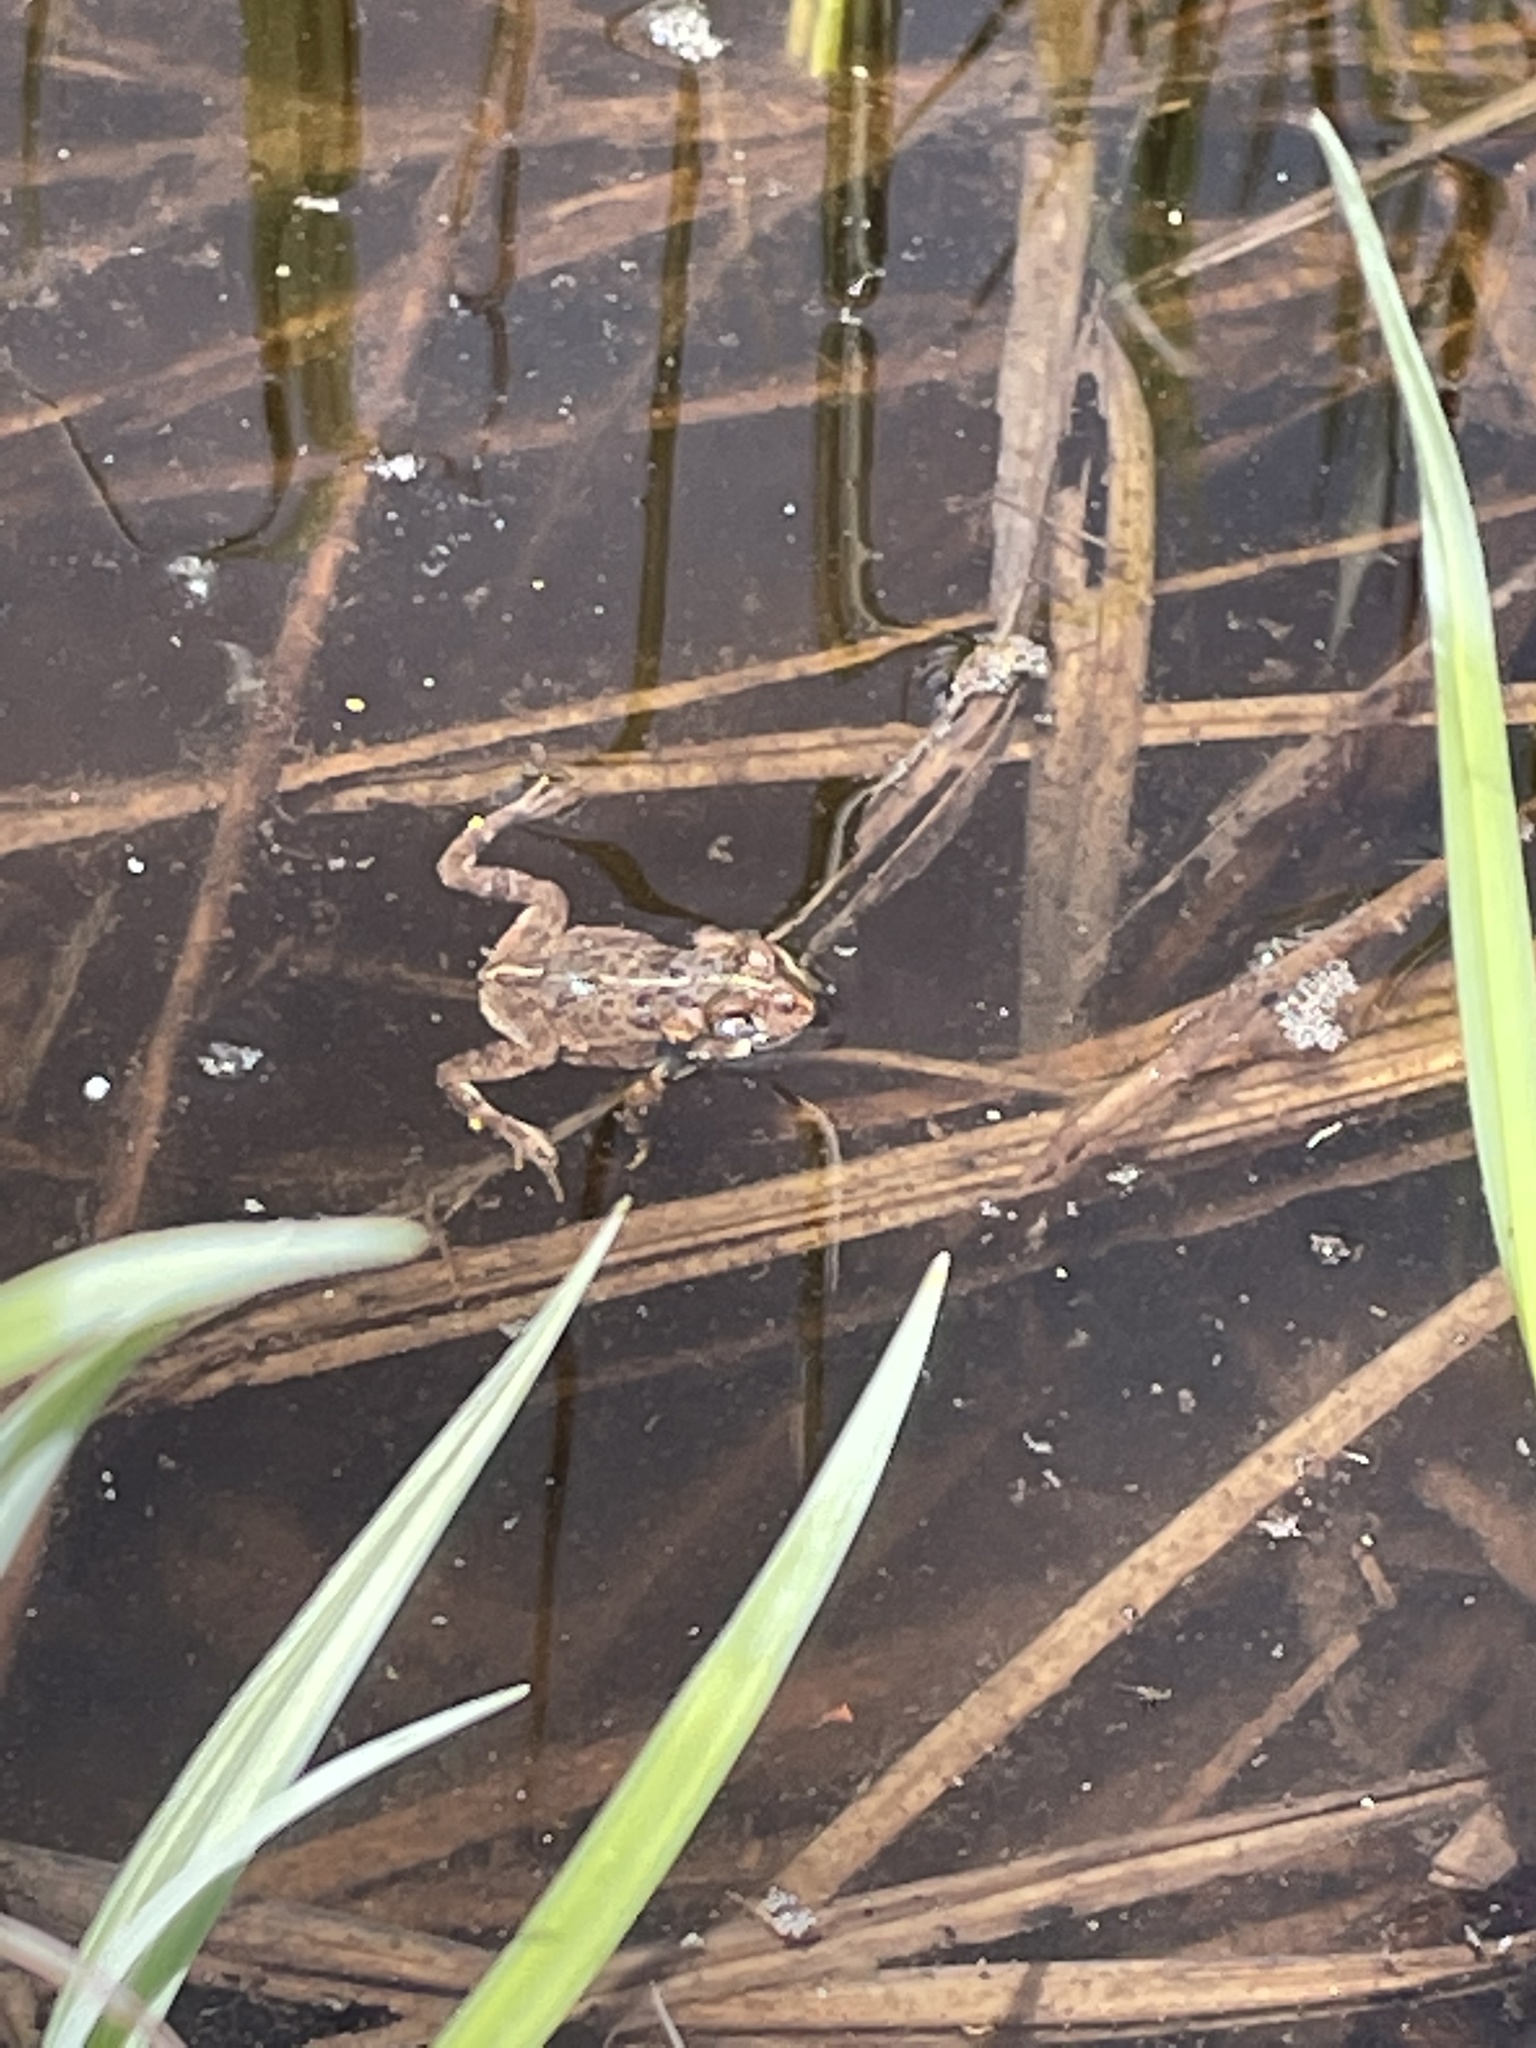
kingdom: Animalia
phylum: Chordata
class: Amphibia
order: Anura
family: Bufonidae
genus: Anaxyrus
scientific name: Anaxyrus boreas
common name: Western toad
